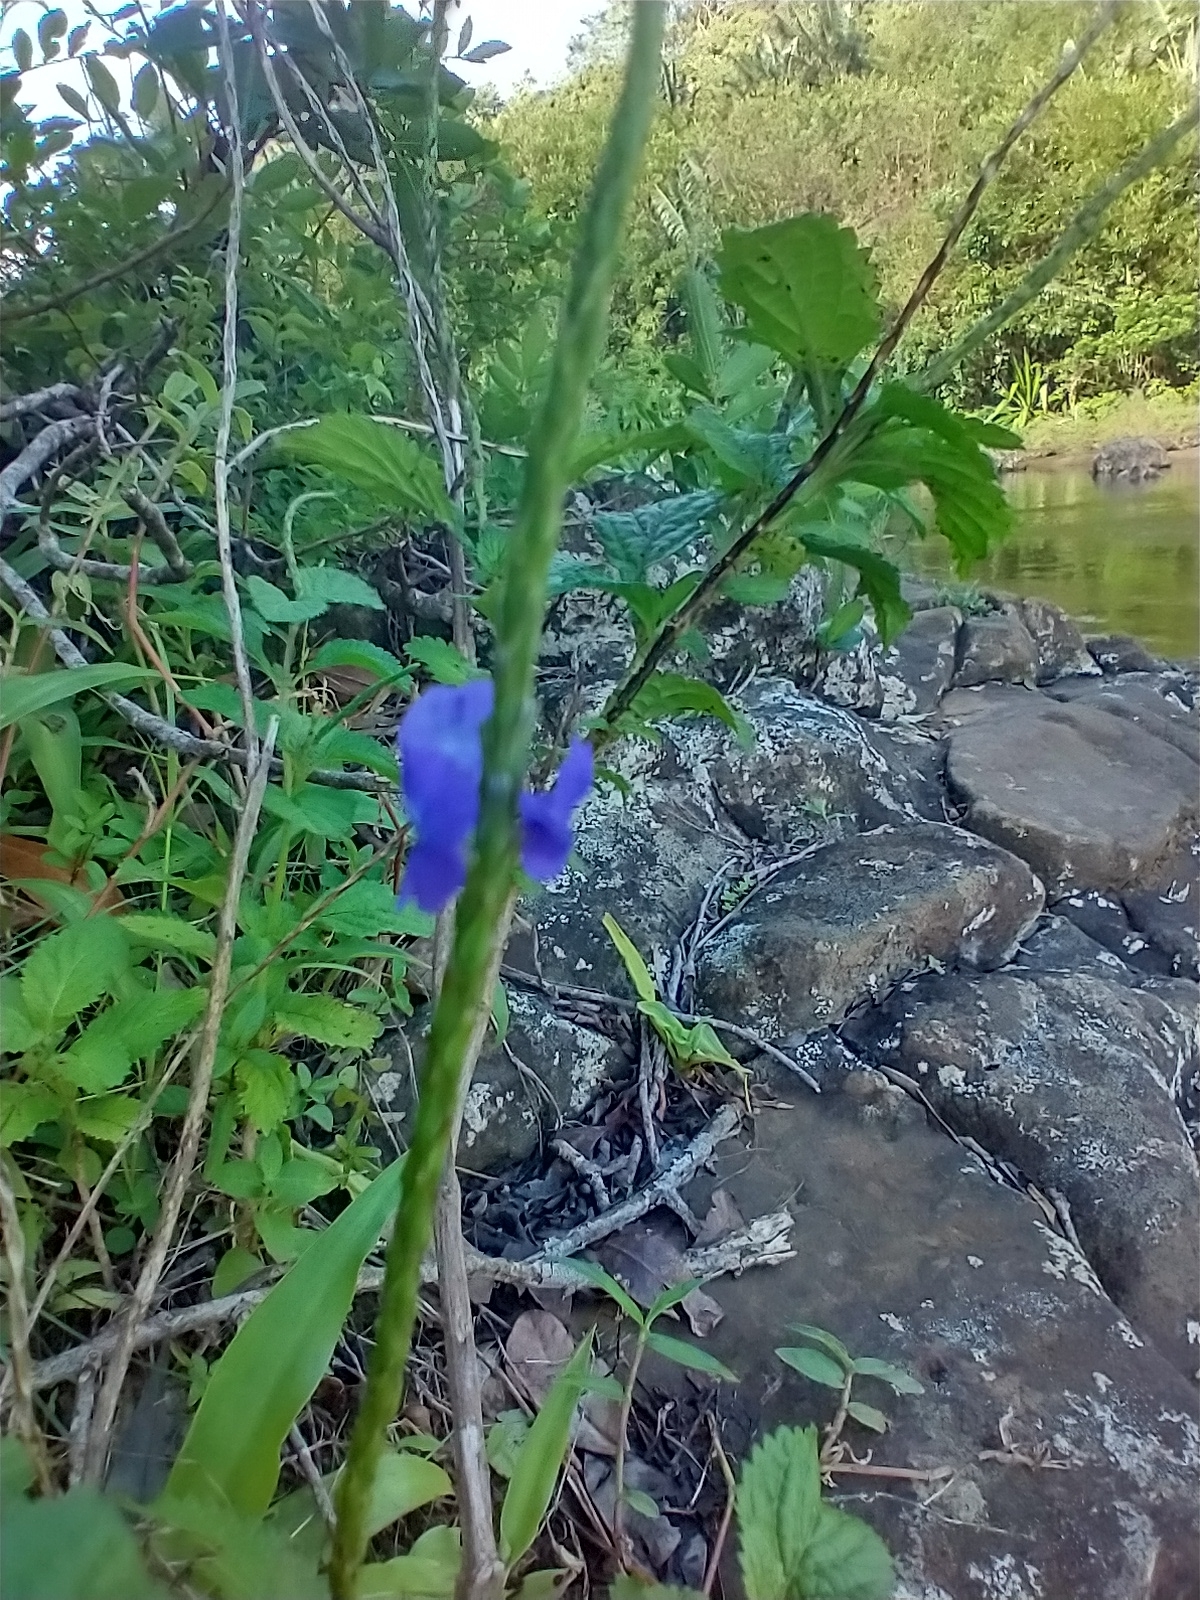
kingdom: Plantae
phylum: Tracheophyta
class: Magnoliopsida
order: Lamiales
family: Verbenaceae
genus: Stachytarpheta
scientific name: Stachytarpheta urticifolia
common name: Nettleleaf velvetberry
